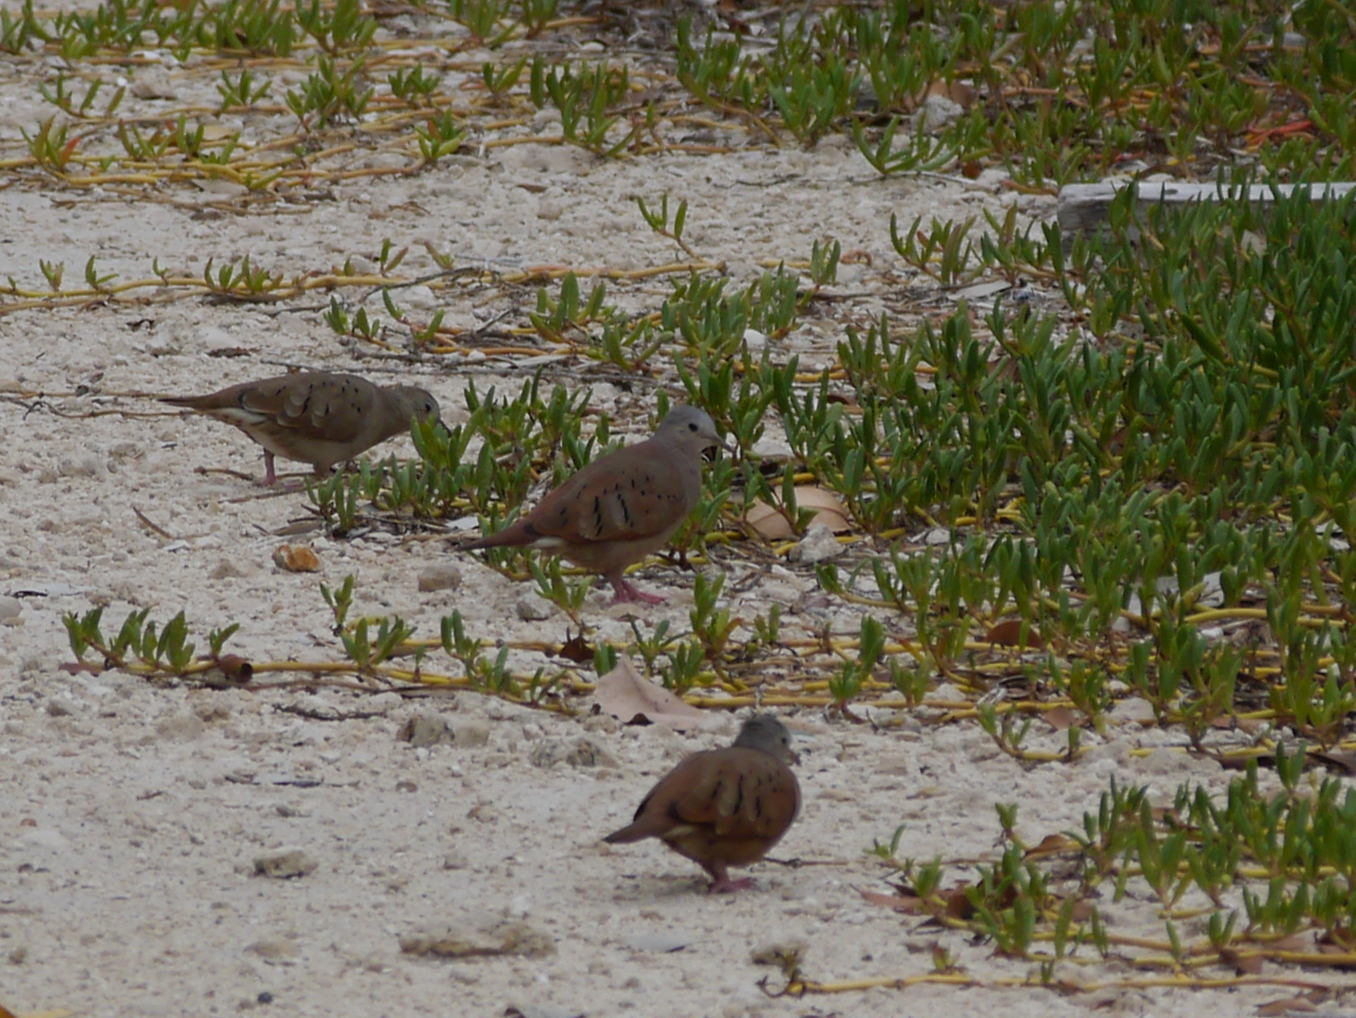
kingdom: Animalia
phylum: Chordata
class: Aves
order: Columbiformes
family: Columbidae
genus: Columbina
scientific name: Columbina talpacoti
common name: Ruddy ground dove
